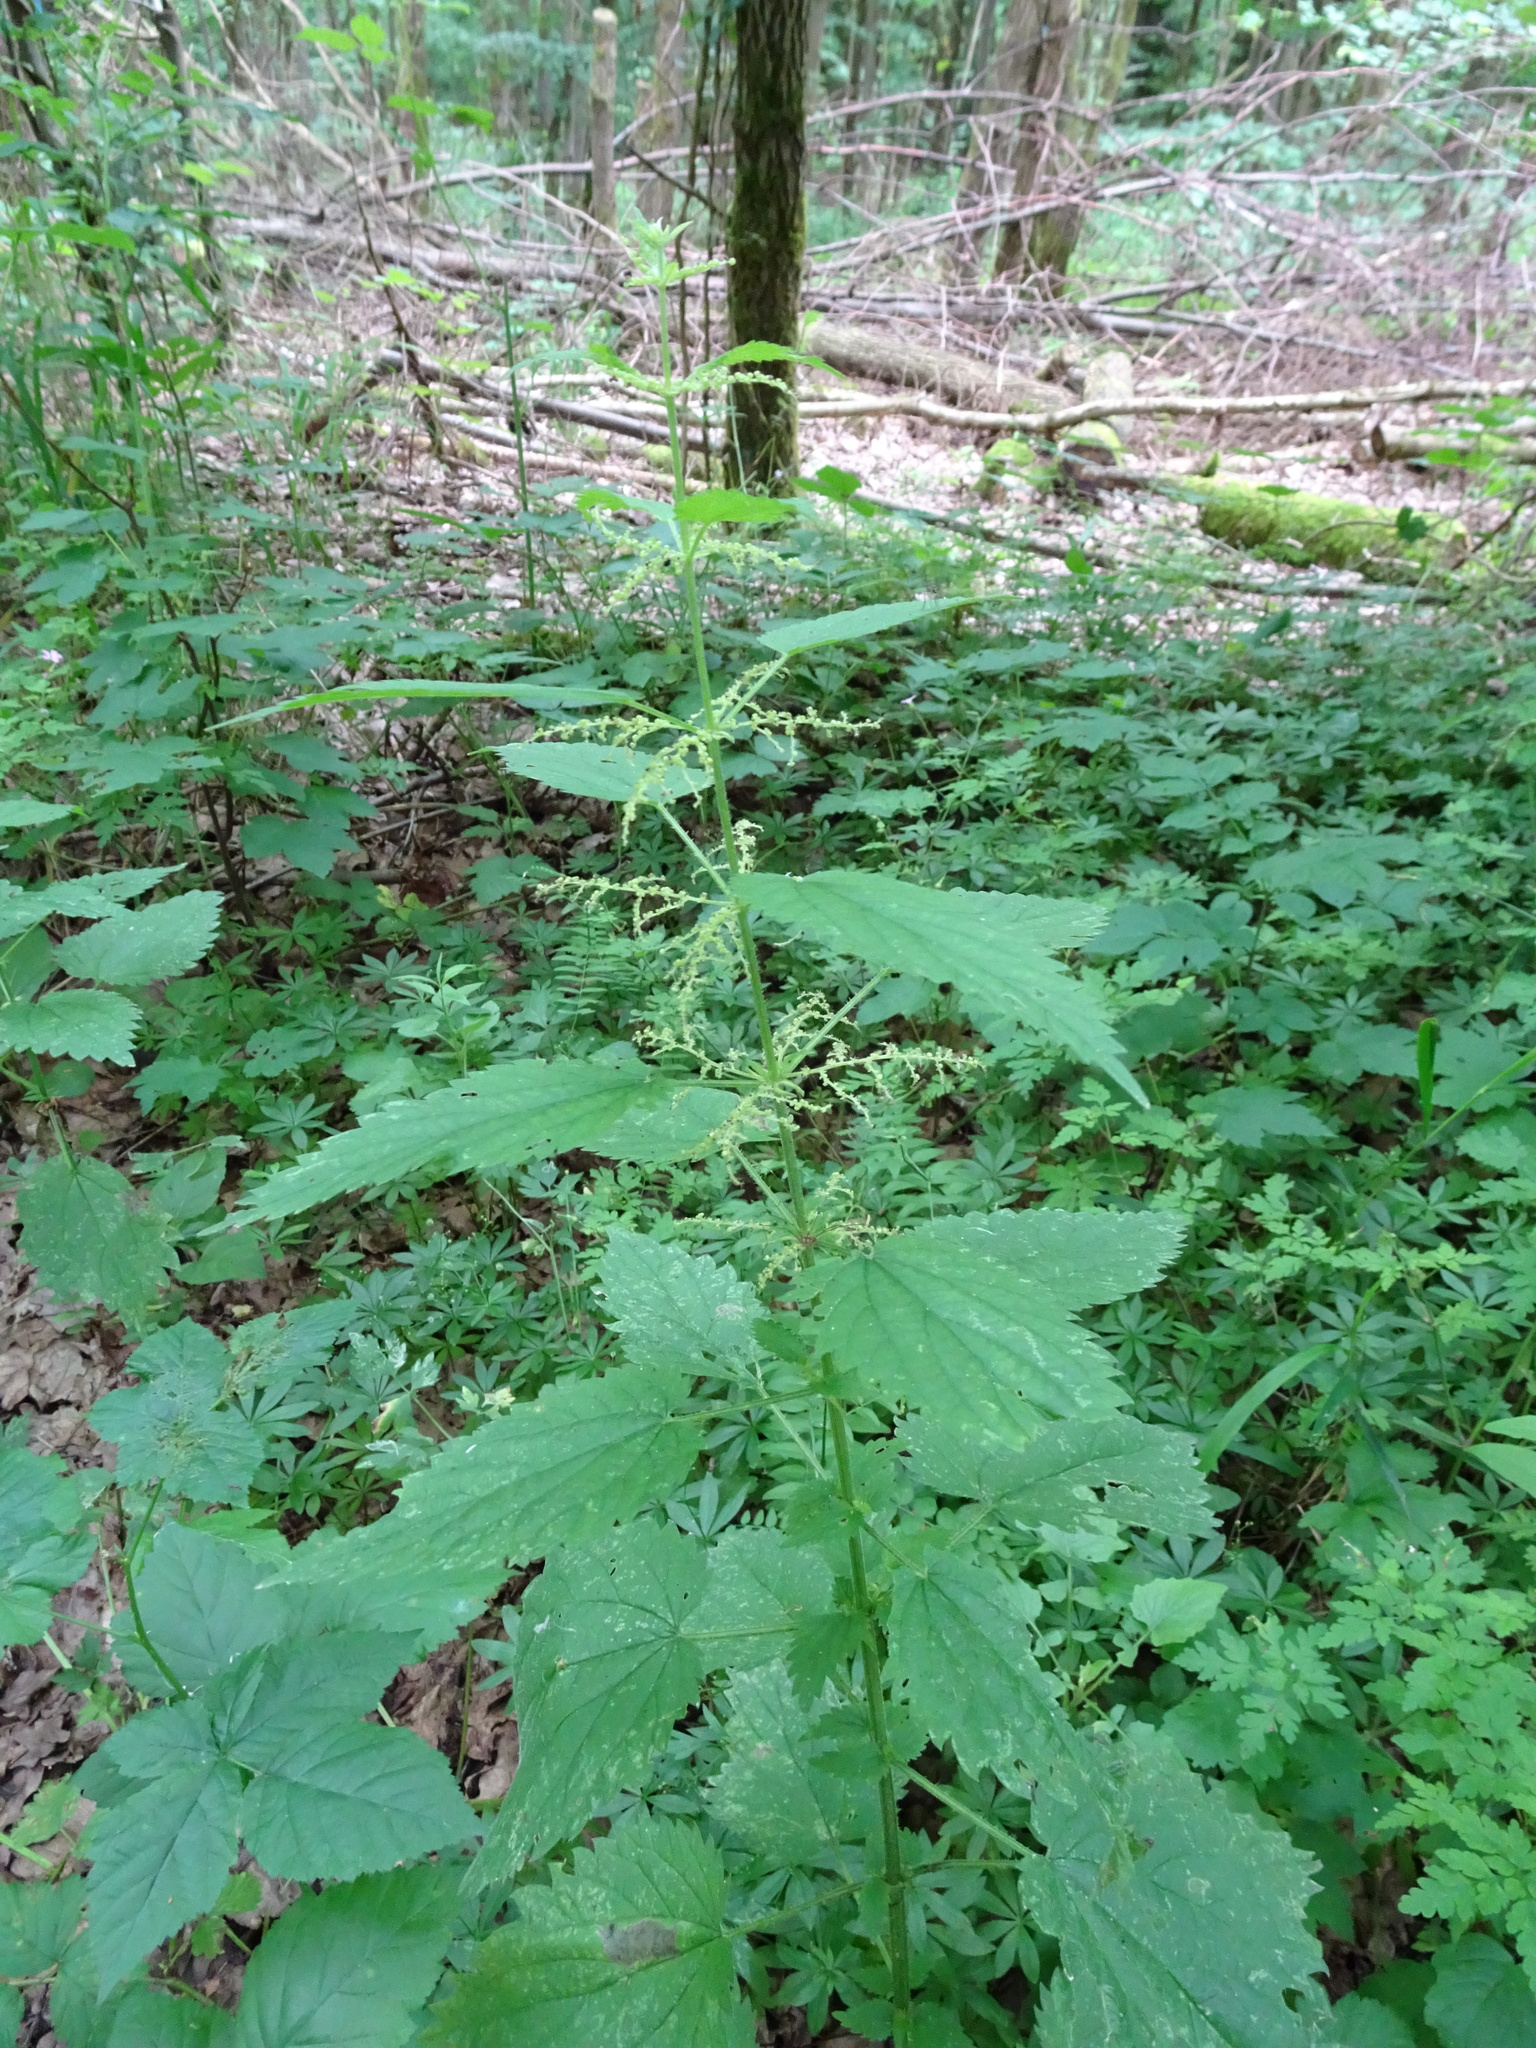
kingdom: Plantae
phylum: Tracheophyta
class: Magnoliopsida
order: Rosales
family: Urticaceae
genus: Urtica
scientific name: Urtica dioica
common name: Common nettle
